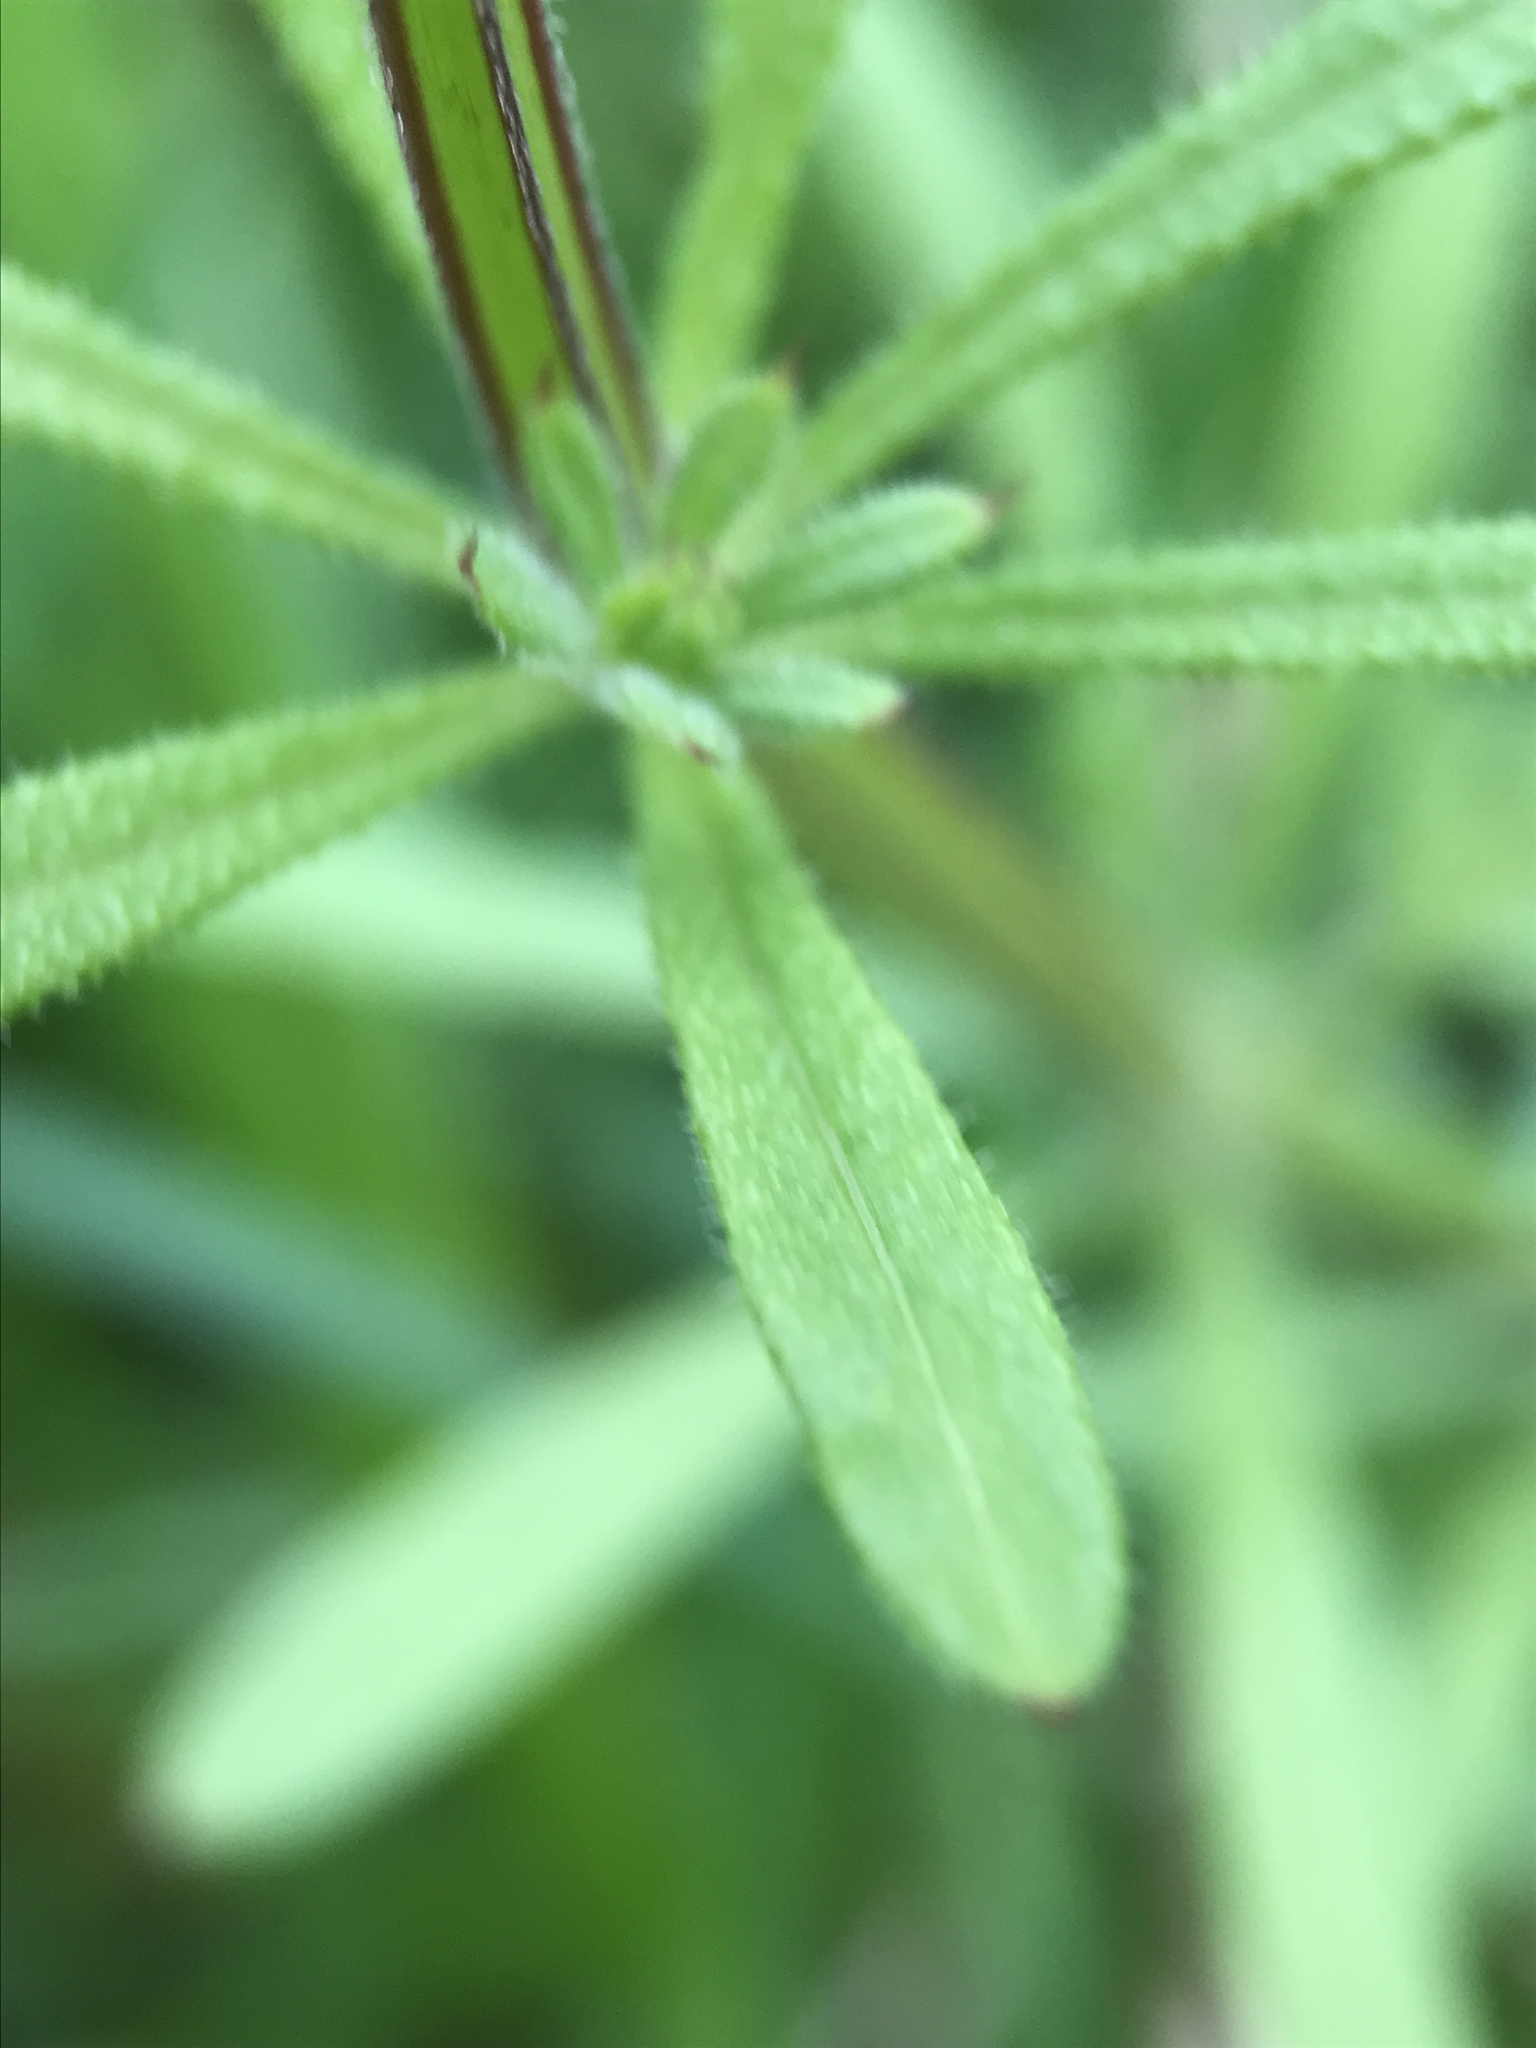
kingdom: Plantae
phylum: Tracheophyta
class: Magnoliopsida
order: Gentianales
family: Rubiaceae
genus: Galium
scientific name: Galium aparine
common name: Cleavers
